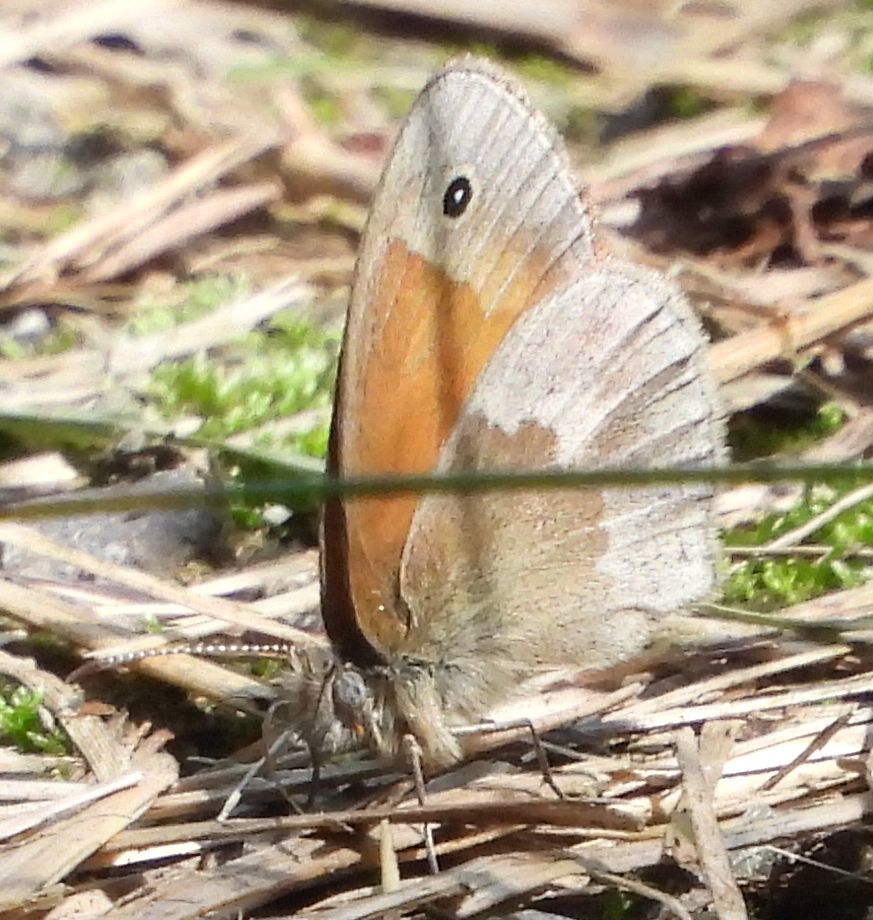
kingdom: Animalia
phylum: Arthropoda
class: Insecta
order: Lepidoptera
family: Nymphalidae
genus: Coenonympha
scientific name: Coenonympha california
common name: Common ringlet
